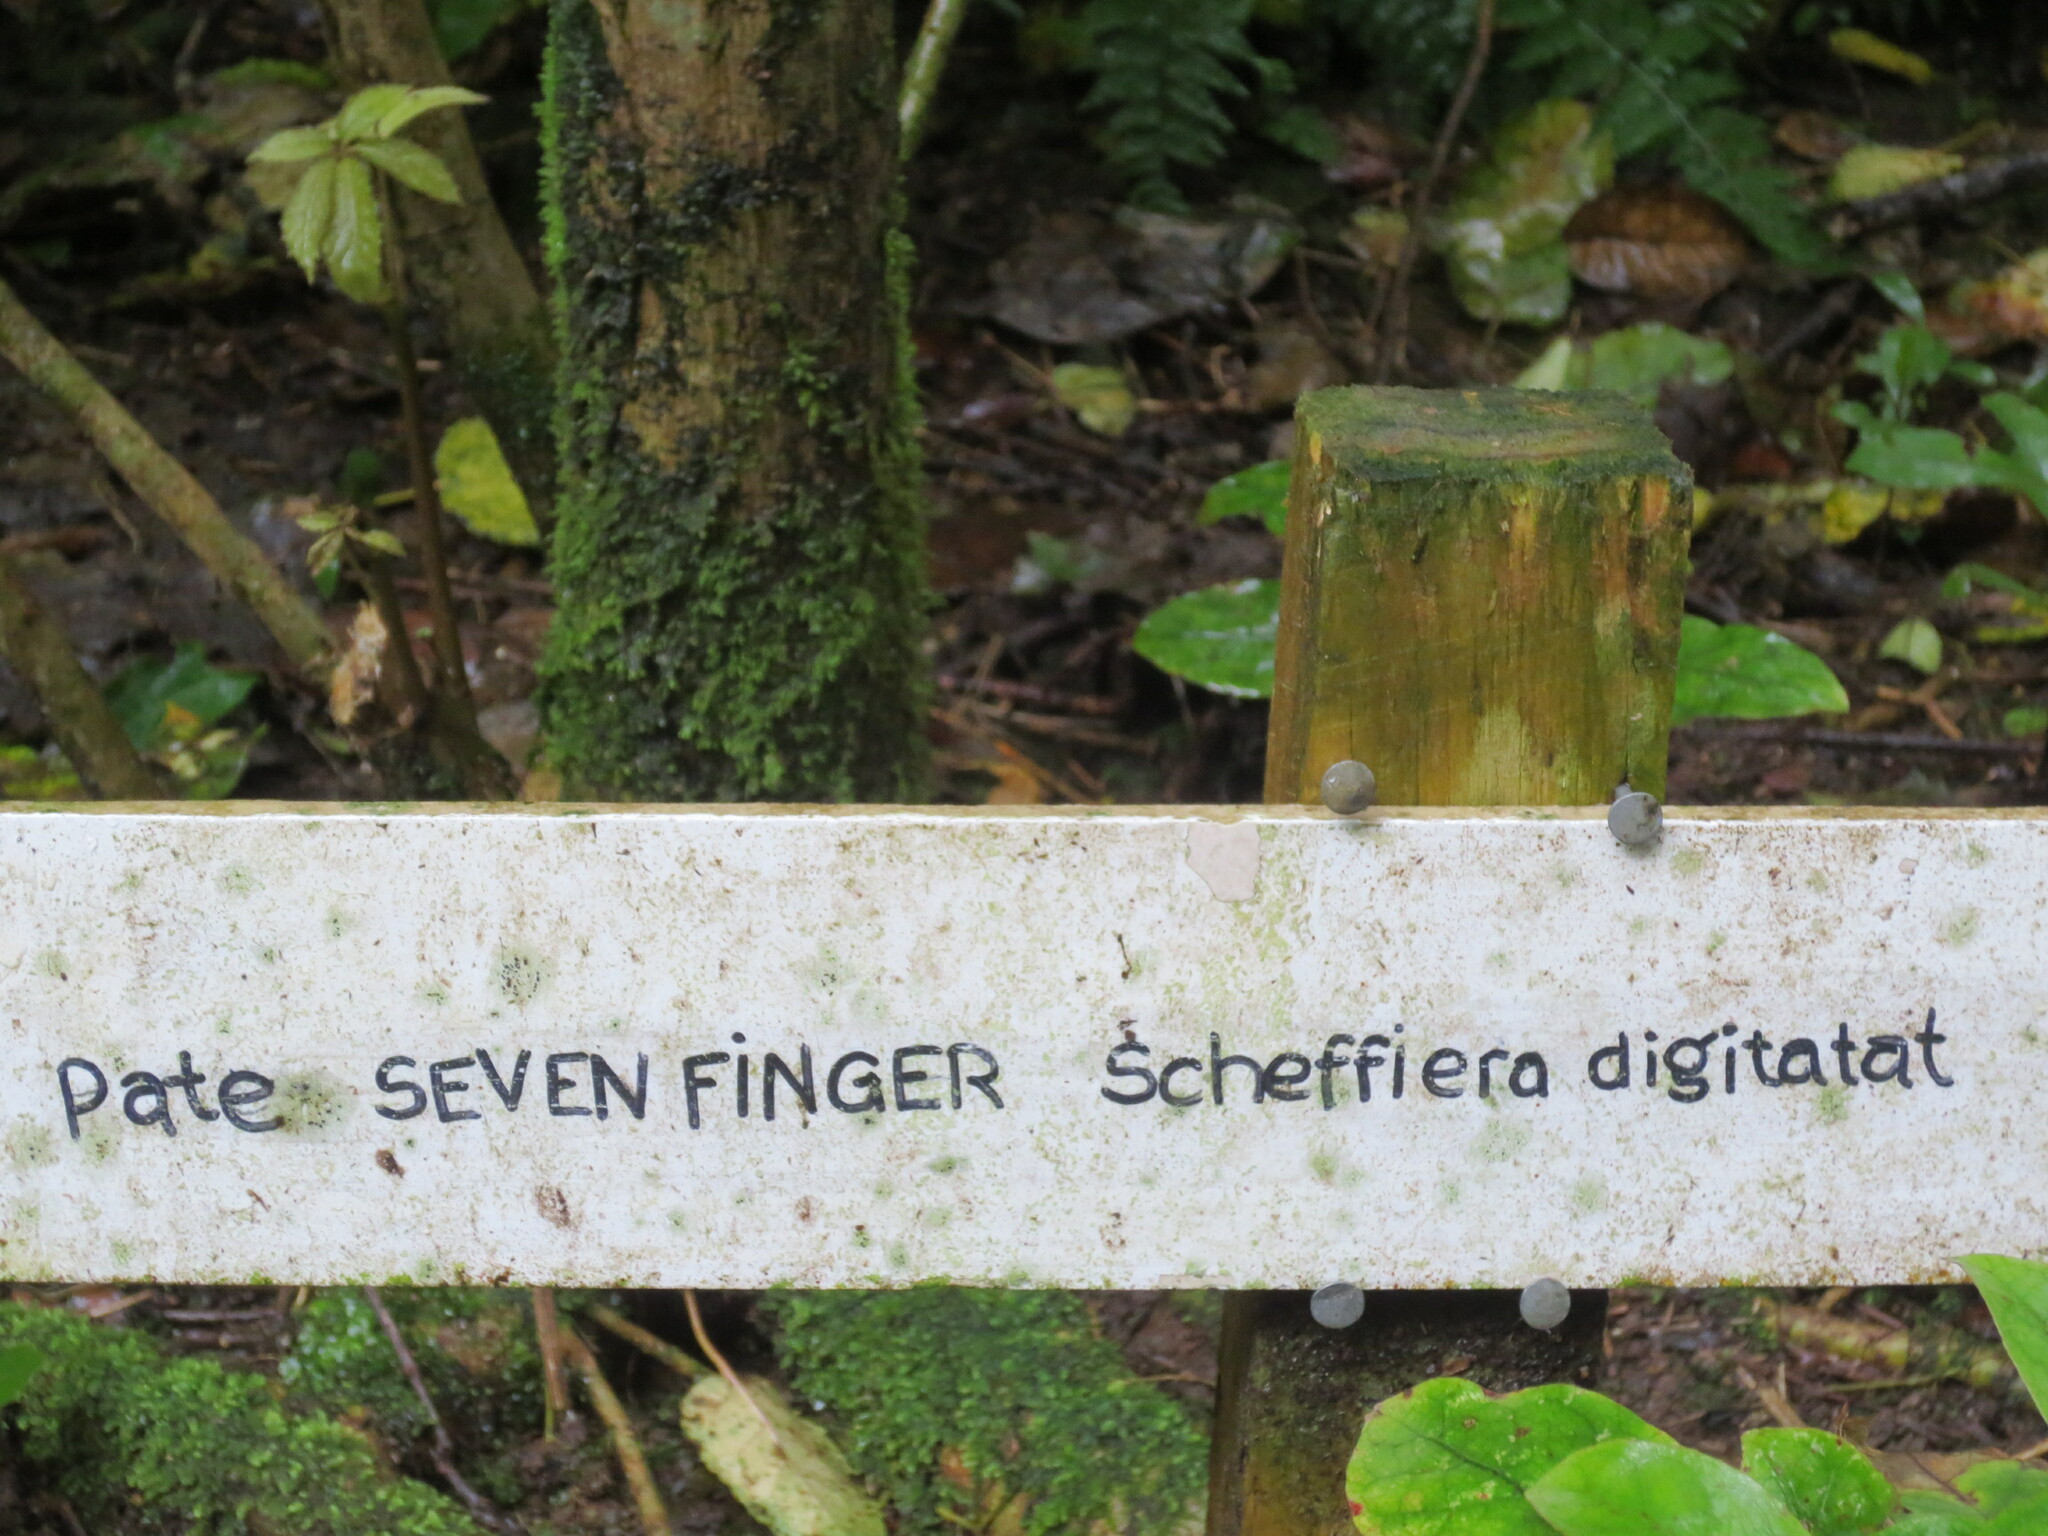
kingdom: Animalia
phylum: Arthropoda
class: Insecta
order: Lepidoptera
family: Noctuidae
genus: Meterana
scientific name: Meterana merope
